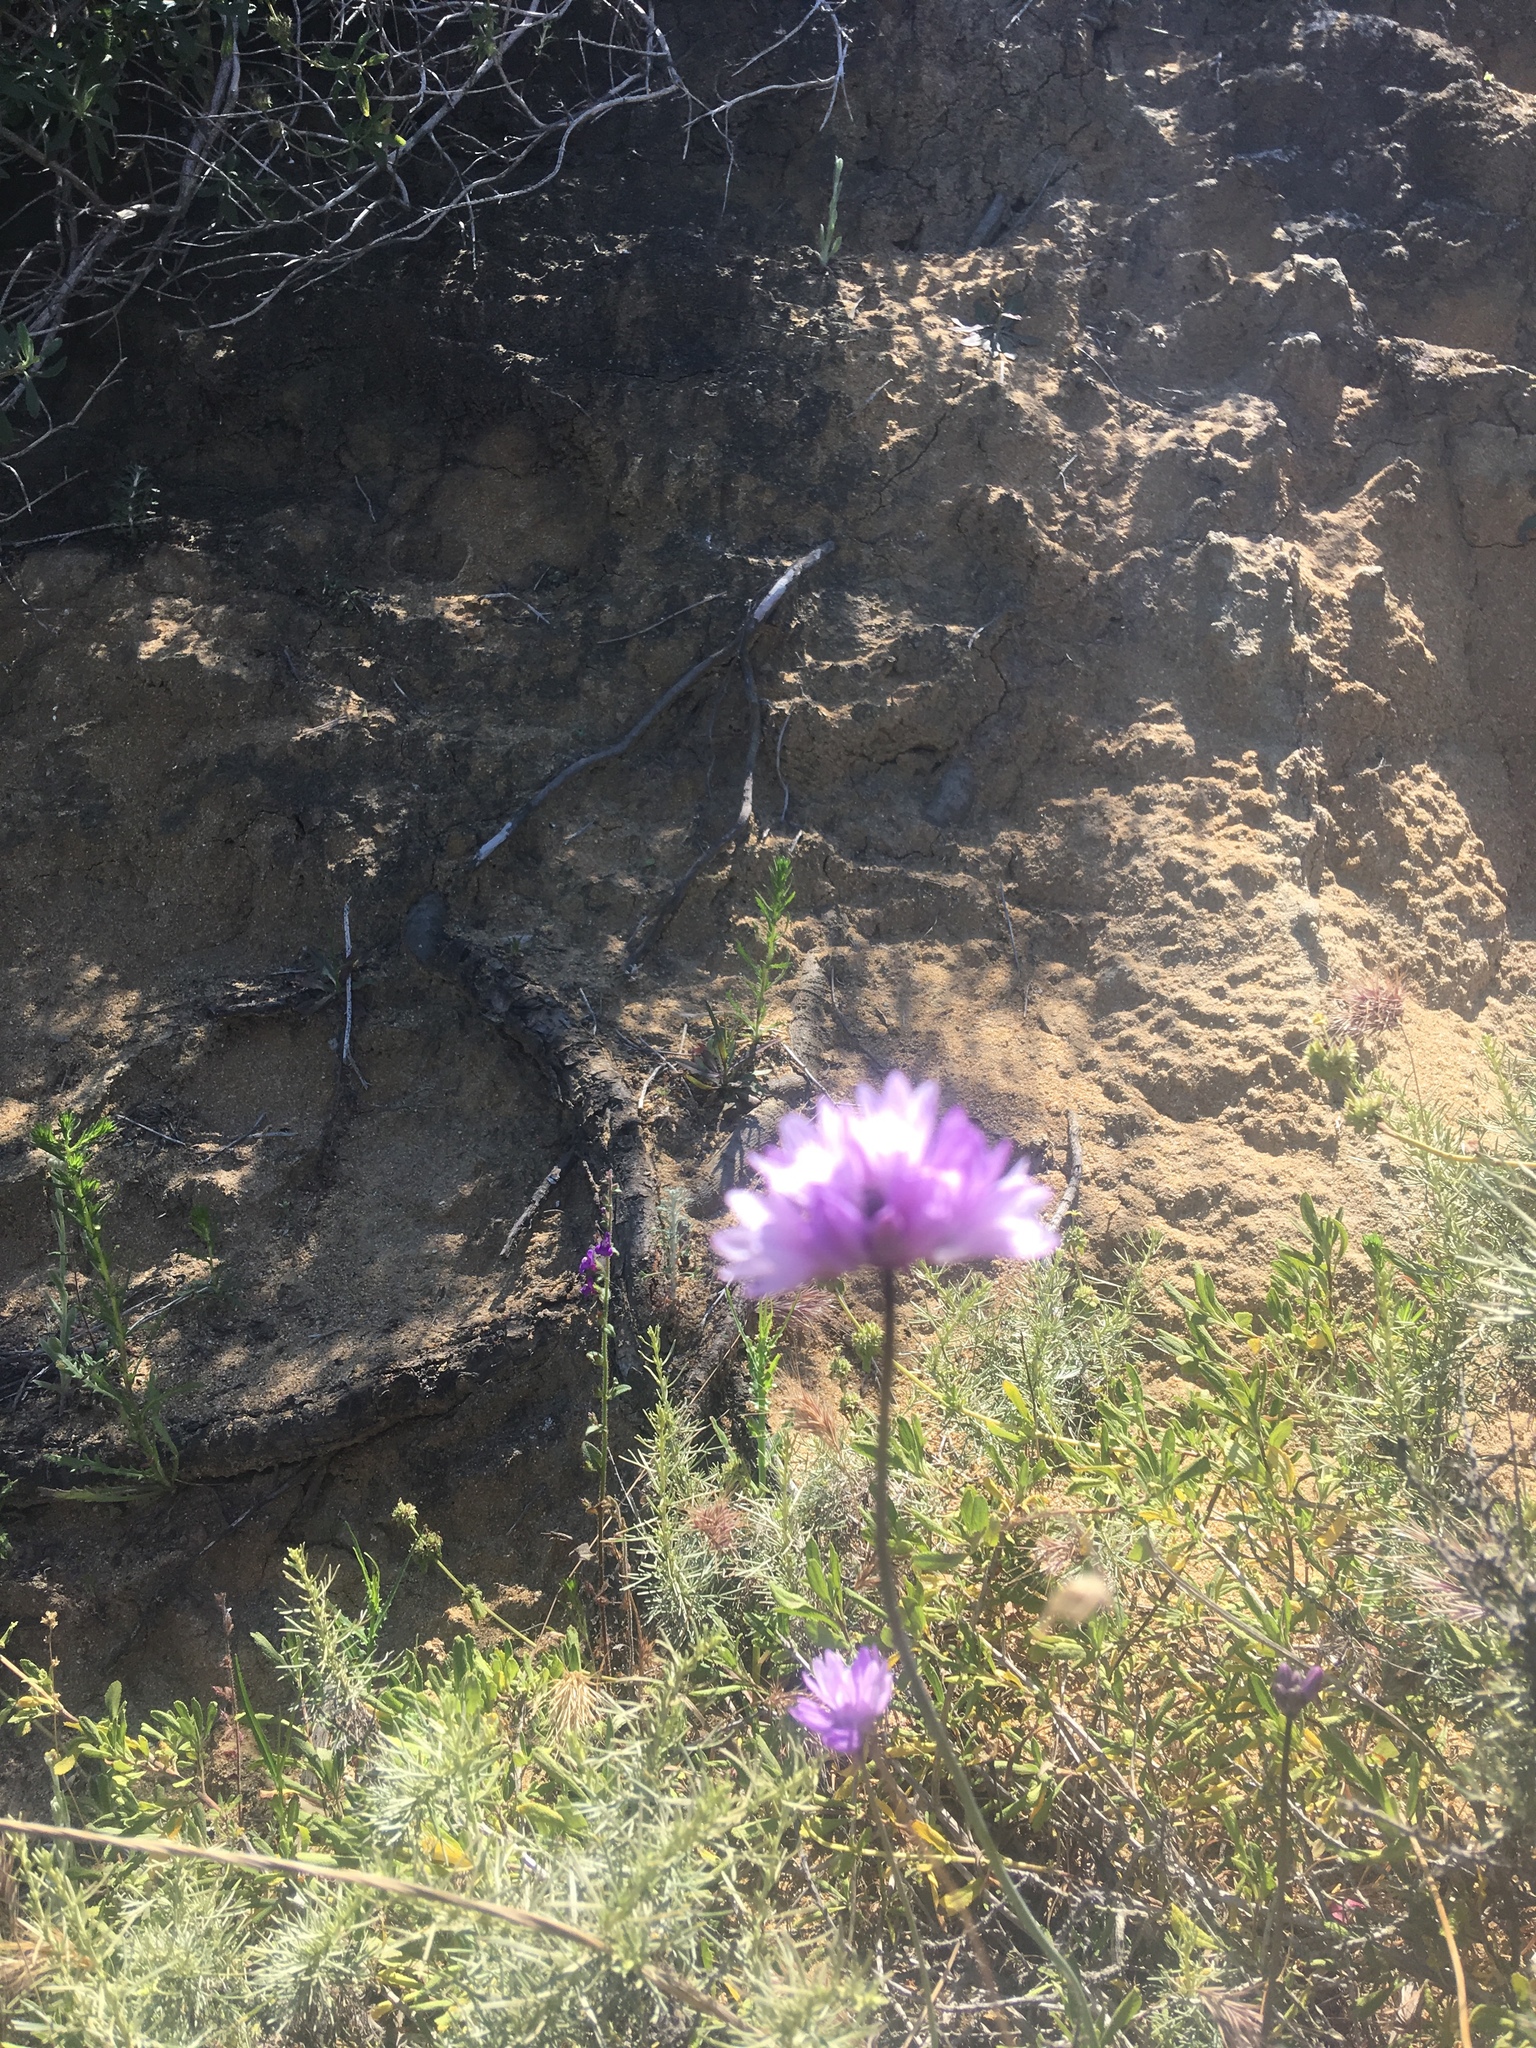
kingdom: Plantae
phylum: Tracheophyta
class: Liliopsida
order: Asparagales
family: Asparagaceae
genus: Dipterostemon
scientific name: Dipterostemon capitatus
